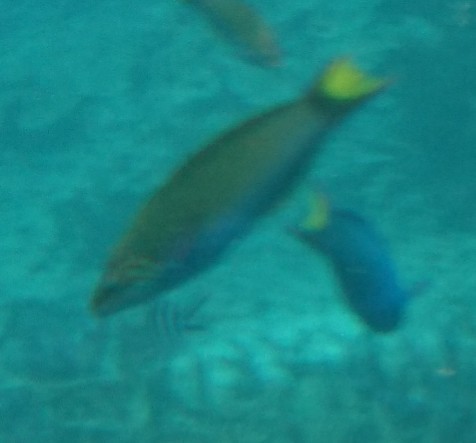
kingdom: Animalia
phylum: Chordata
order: Perciformes
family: Labridae
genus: Thalassoma
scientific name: Thalassoma lunare
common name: Blue wrasse
